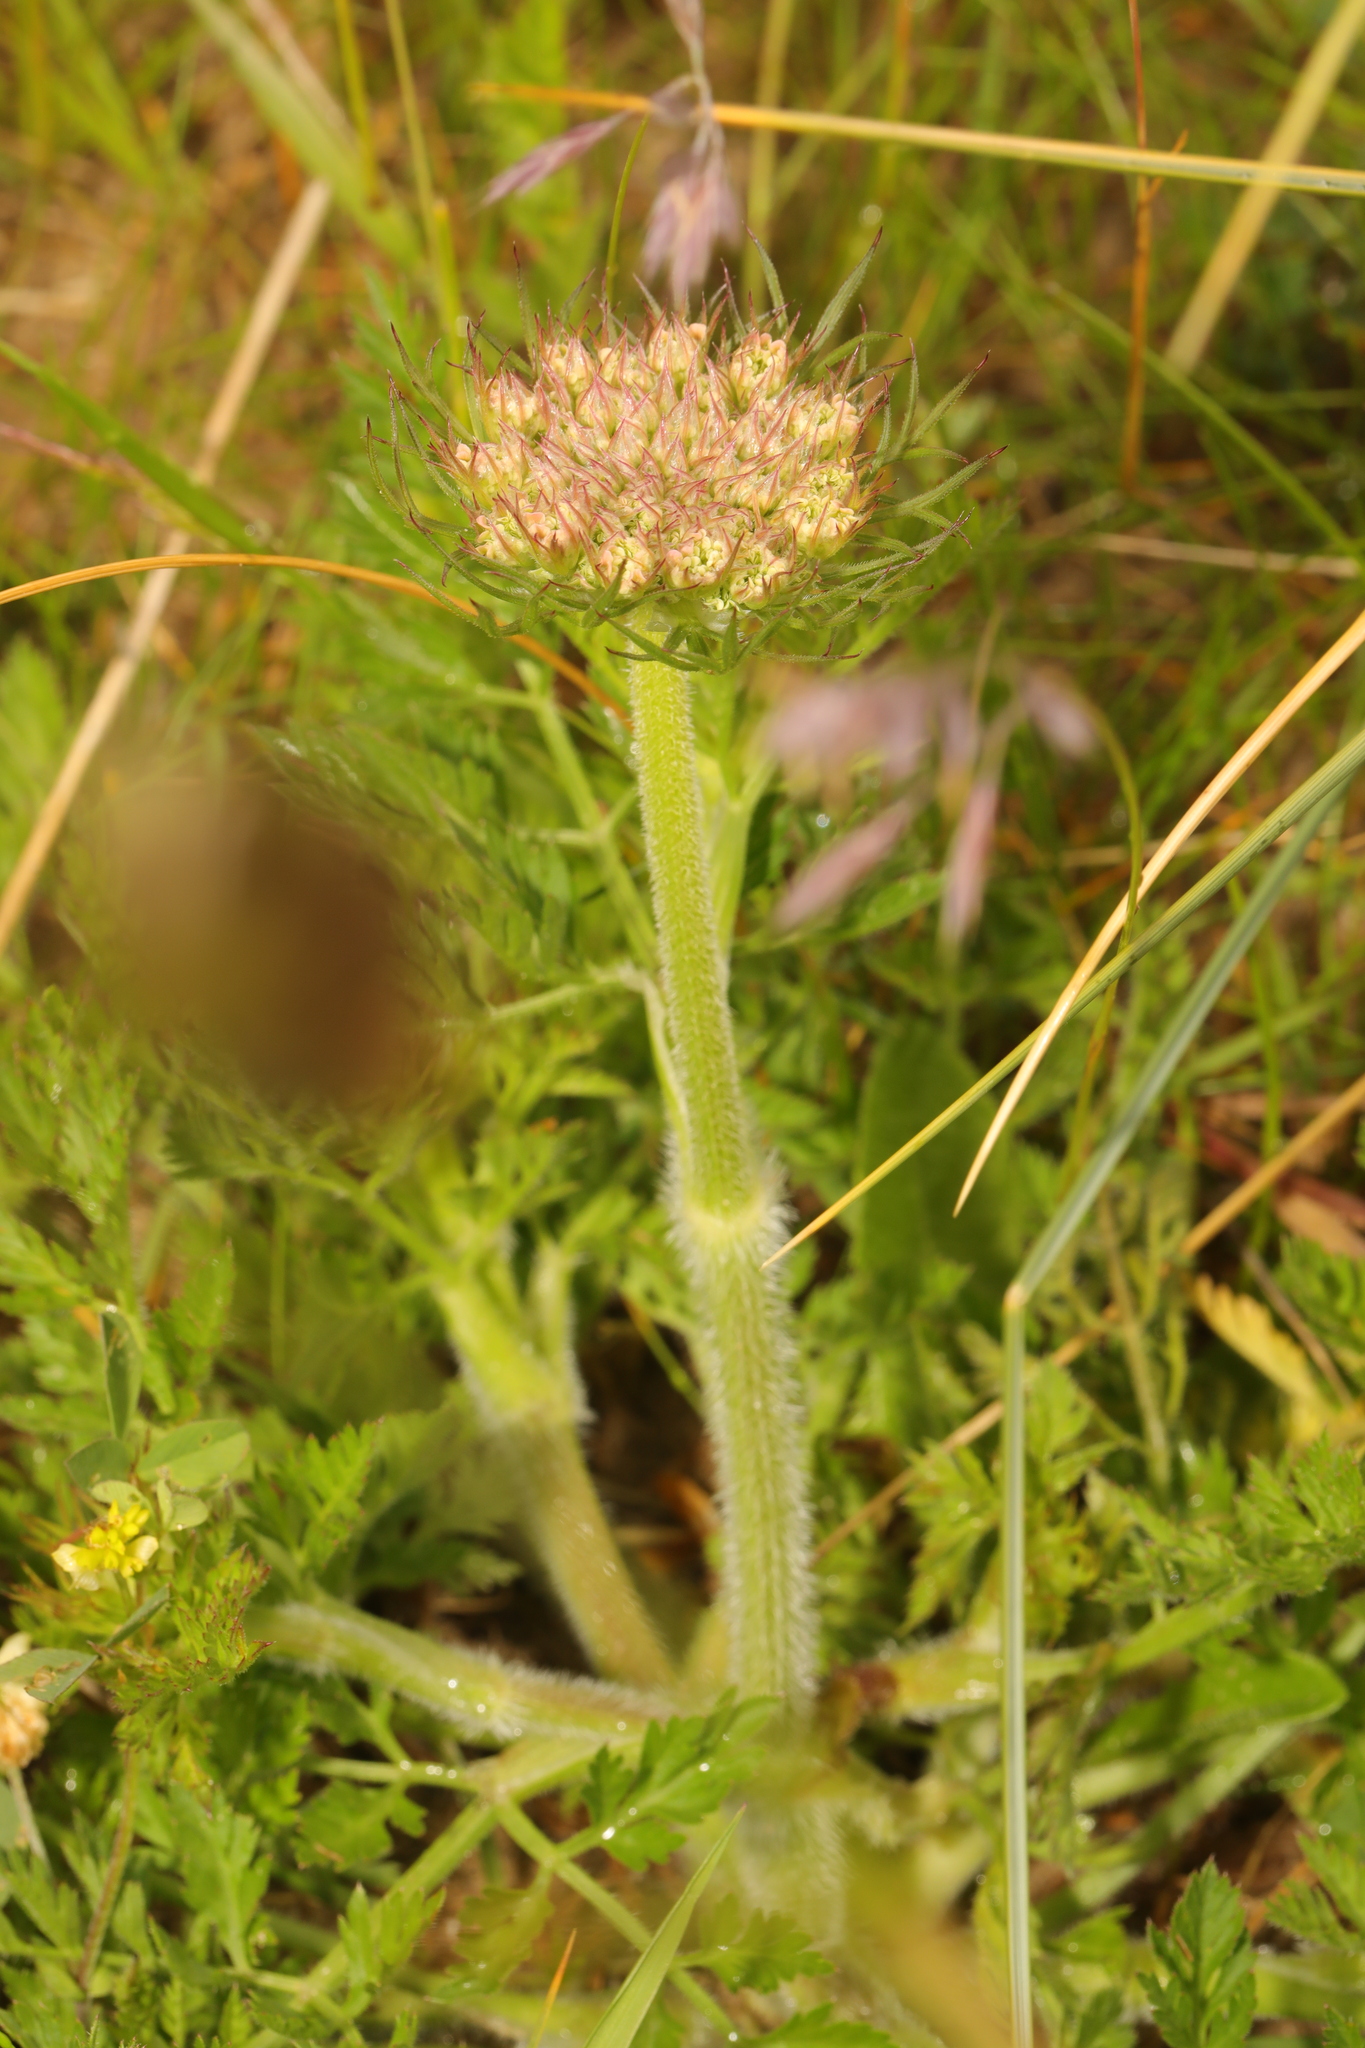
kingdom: Plantae
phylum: Tracheophyta
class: Magnoliopsida
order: Apiales
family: Apiaceae
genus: Daucus
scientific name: Daucus carota
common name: Wild carrot
